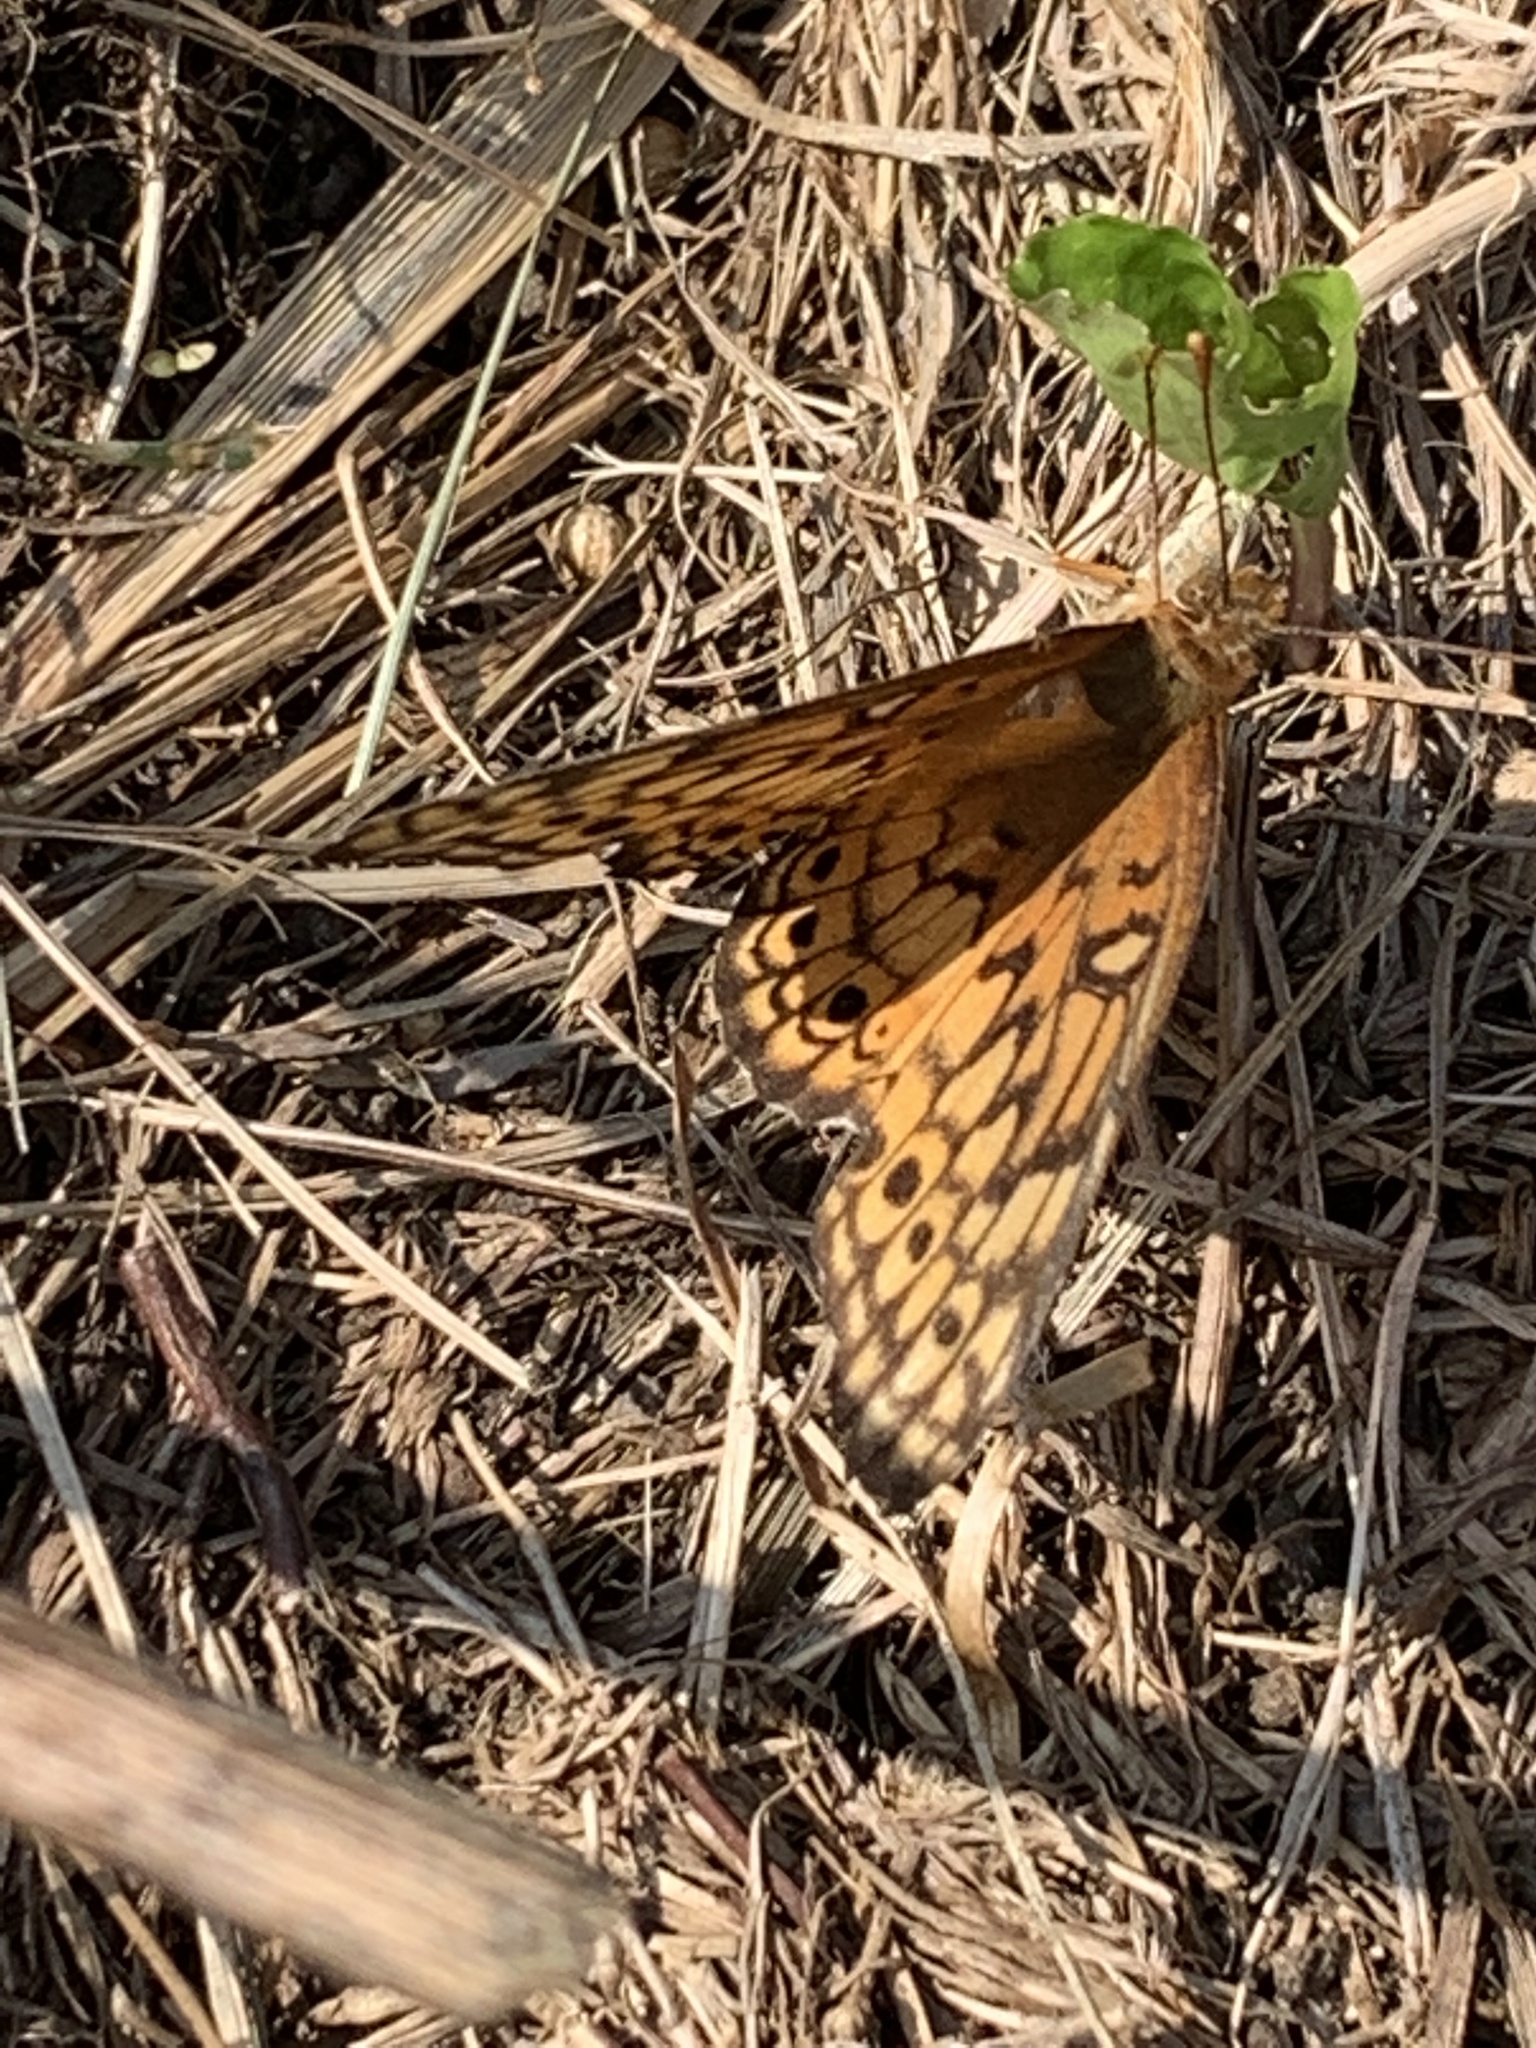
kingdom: Animalia
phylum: Arthropoda
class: Insecta
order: Lepidoptera
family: Nymphalidae
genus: Euptoieta
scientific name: Euptoieta claudia
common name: Variegated fritillary
